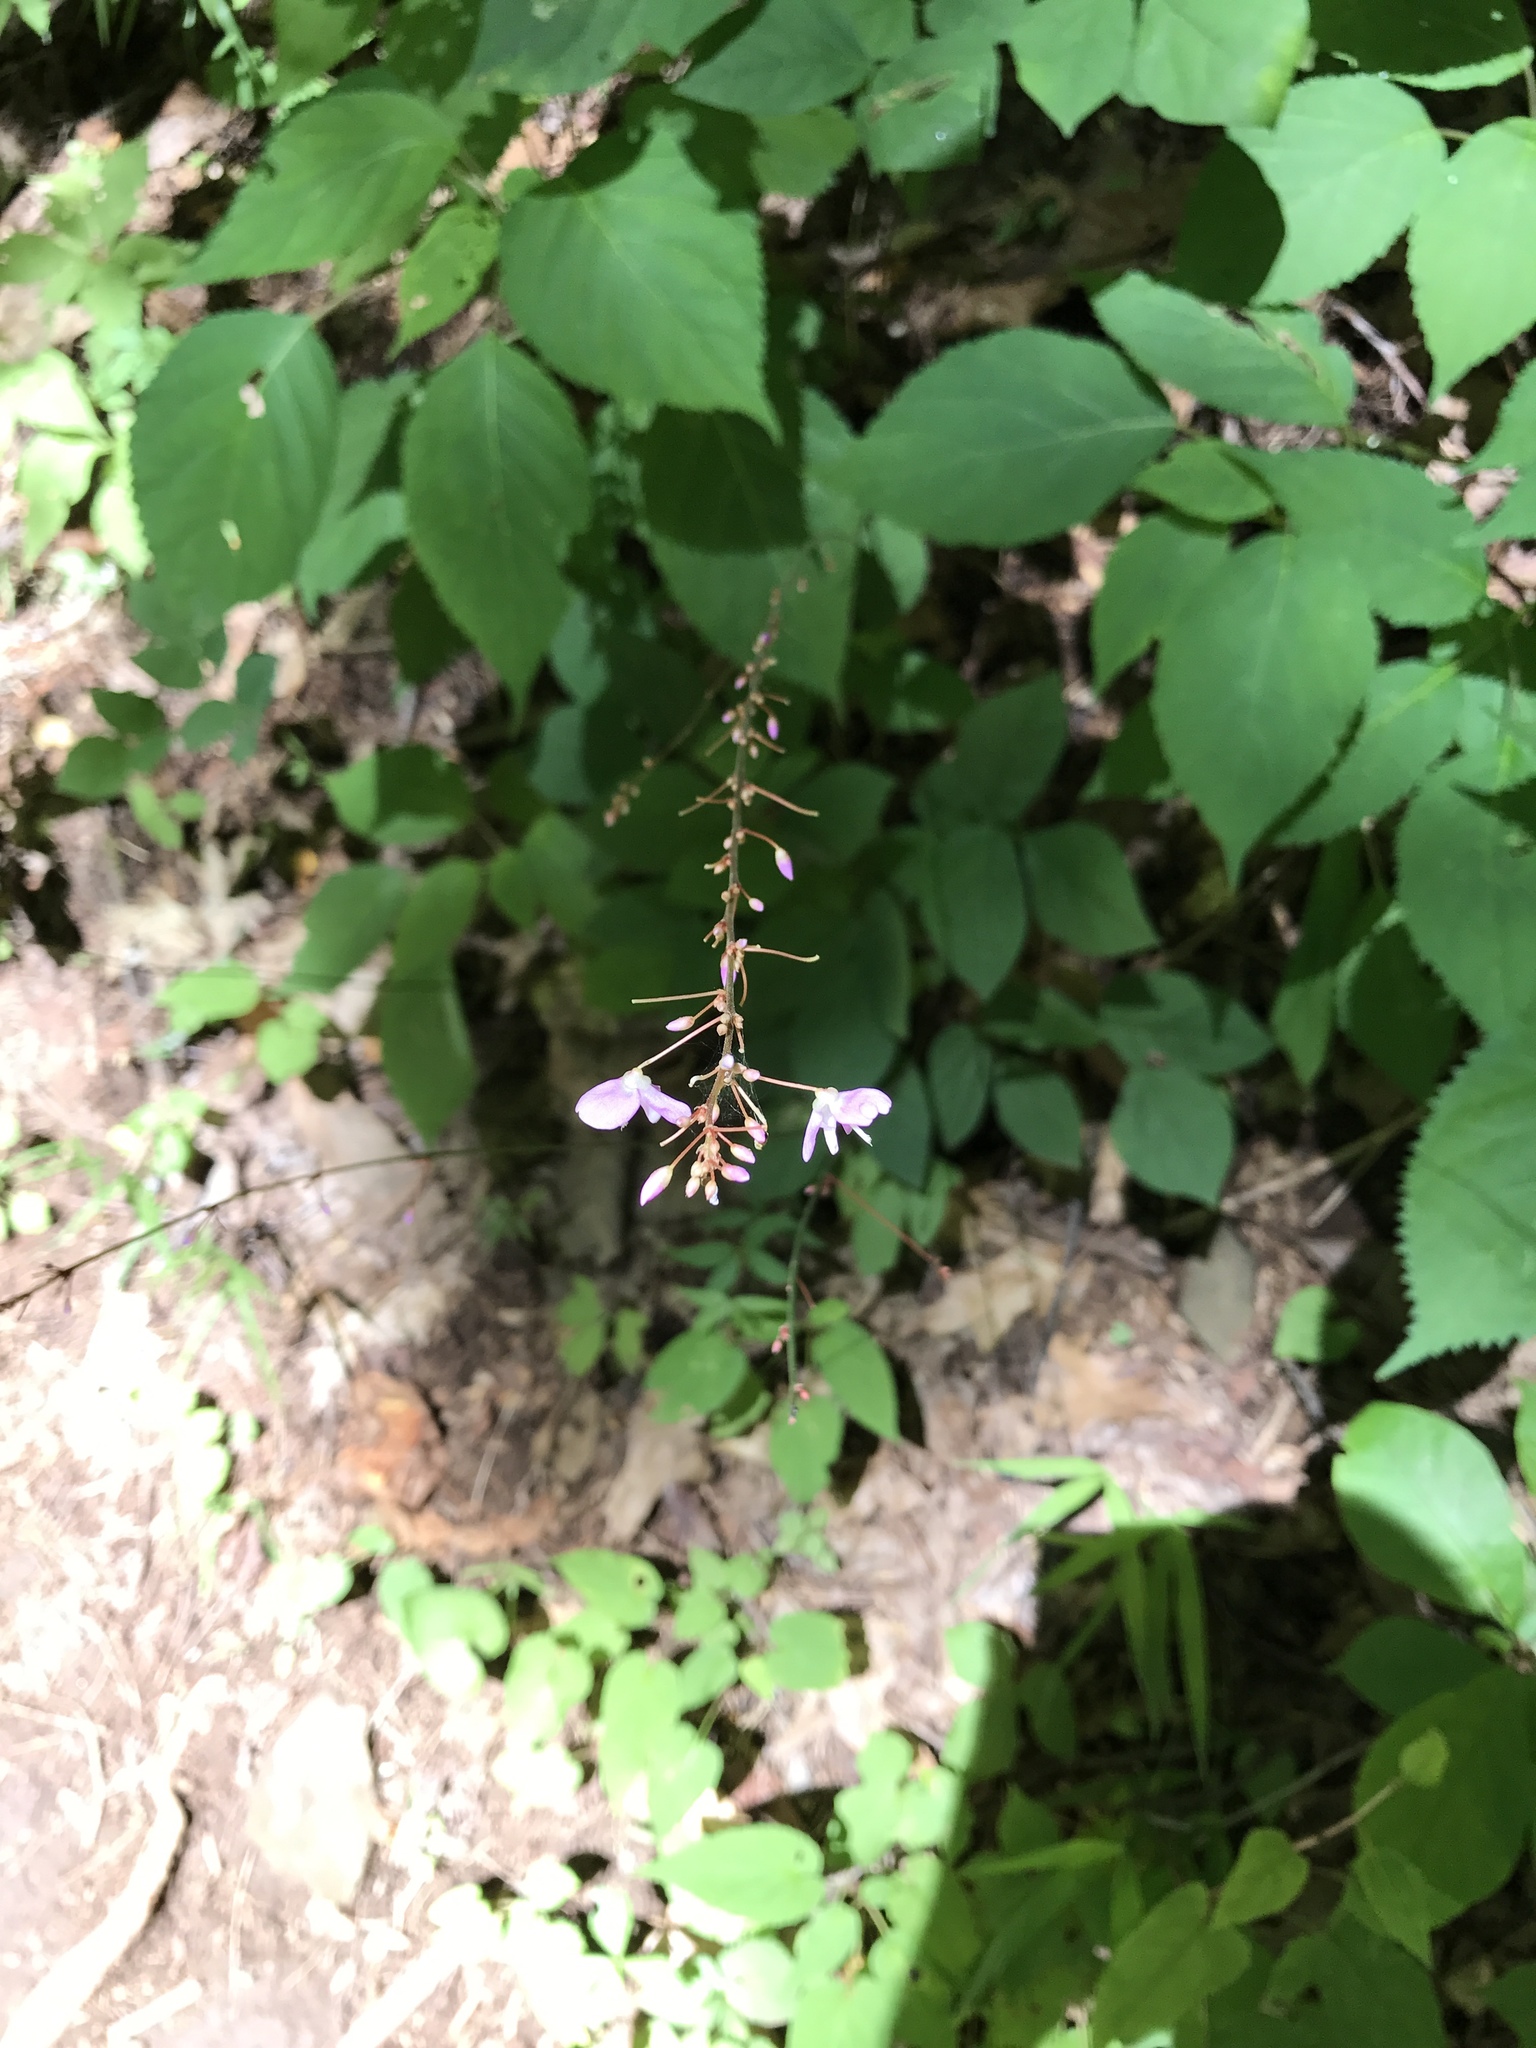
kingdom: Plantae
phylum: Tracheophyta
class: Magnoliopsida
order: Fabales
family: Fabaceae
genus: Hylodesmum
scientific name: Hylodesmum nudiflorum
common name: Bare-stemmed tick-trefoil
